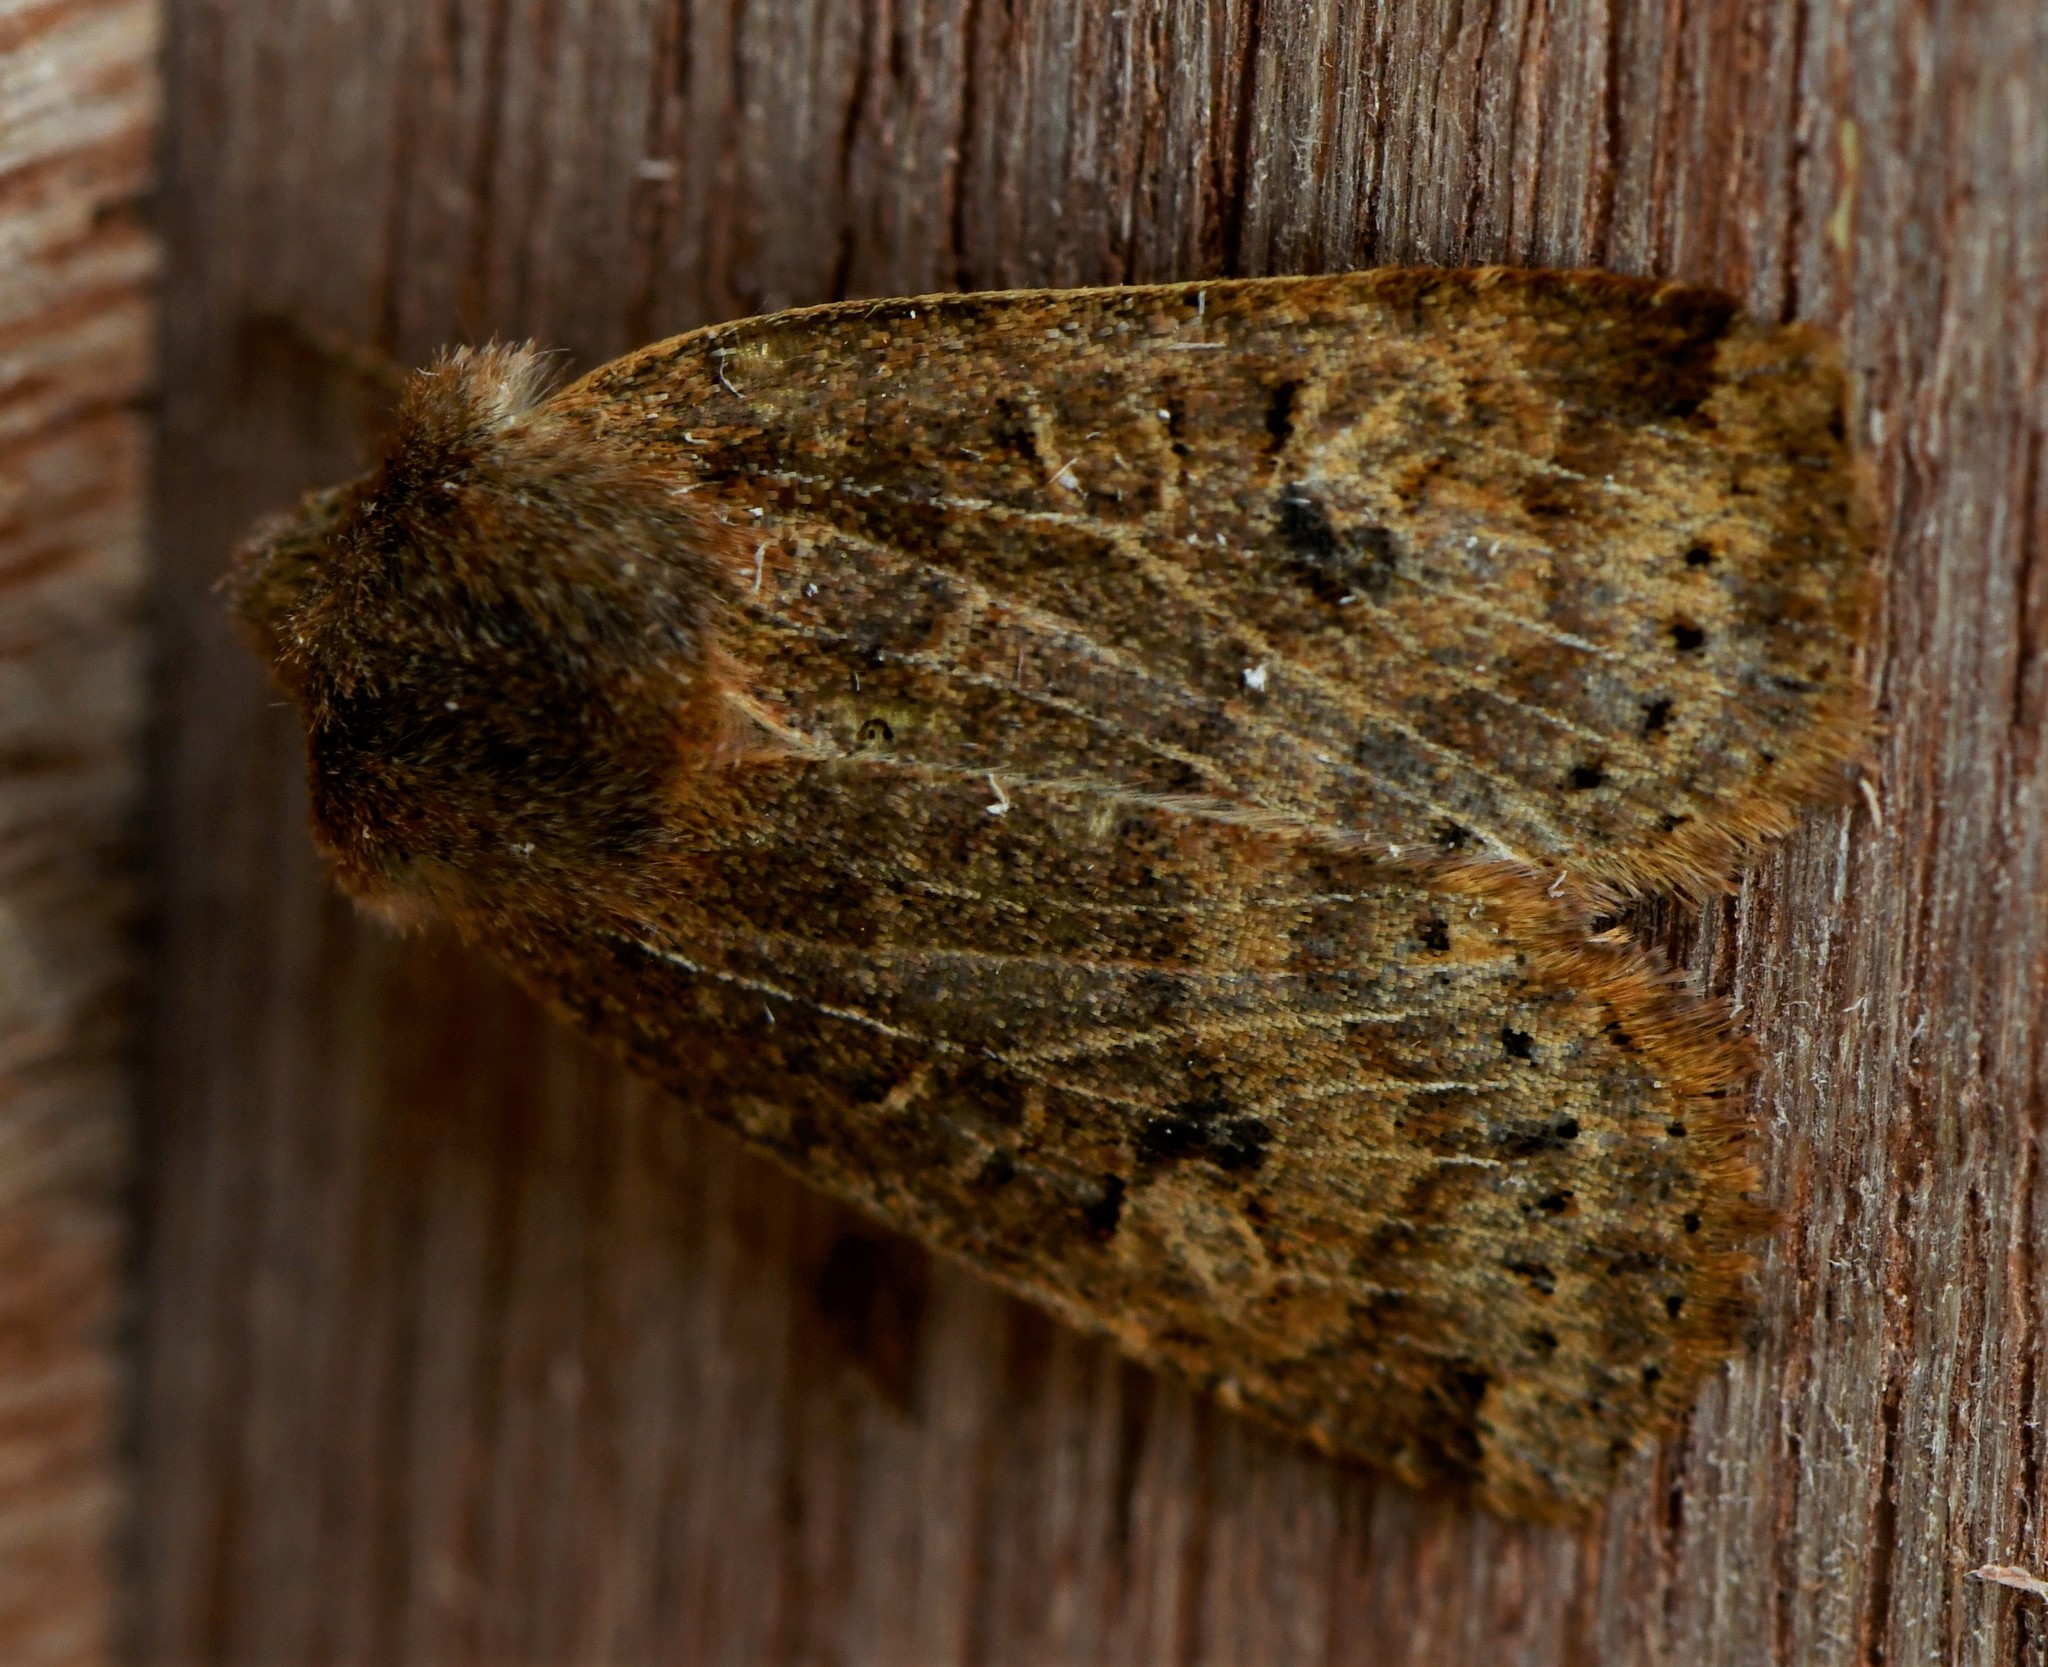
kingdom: Animalia
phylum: Arthropoda
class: Insecta
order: Lepidoptera
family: Noctuidae
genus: Conistra
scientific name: Conistra vaccinii
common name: Chestnut
